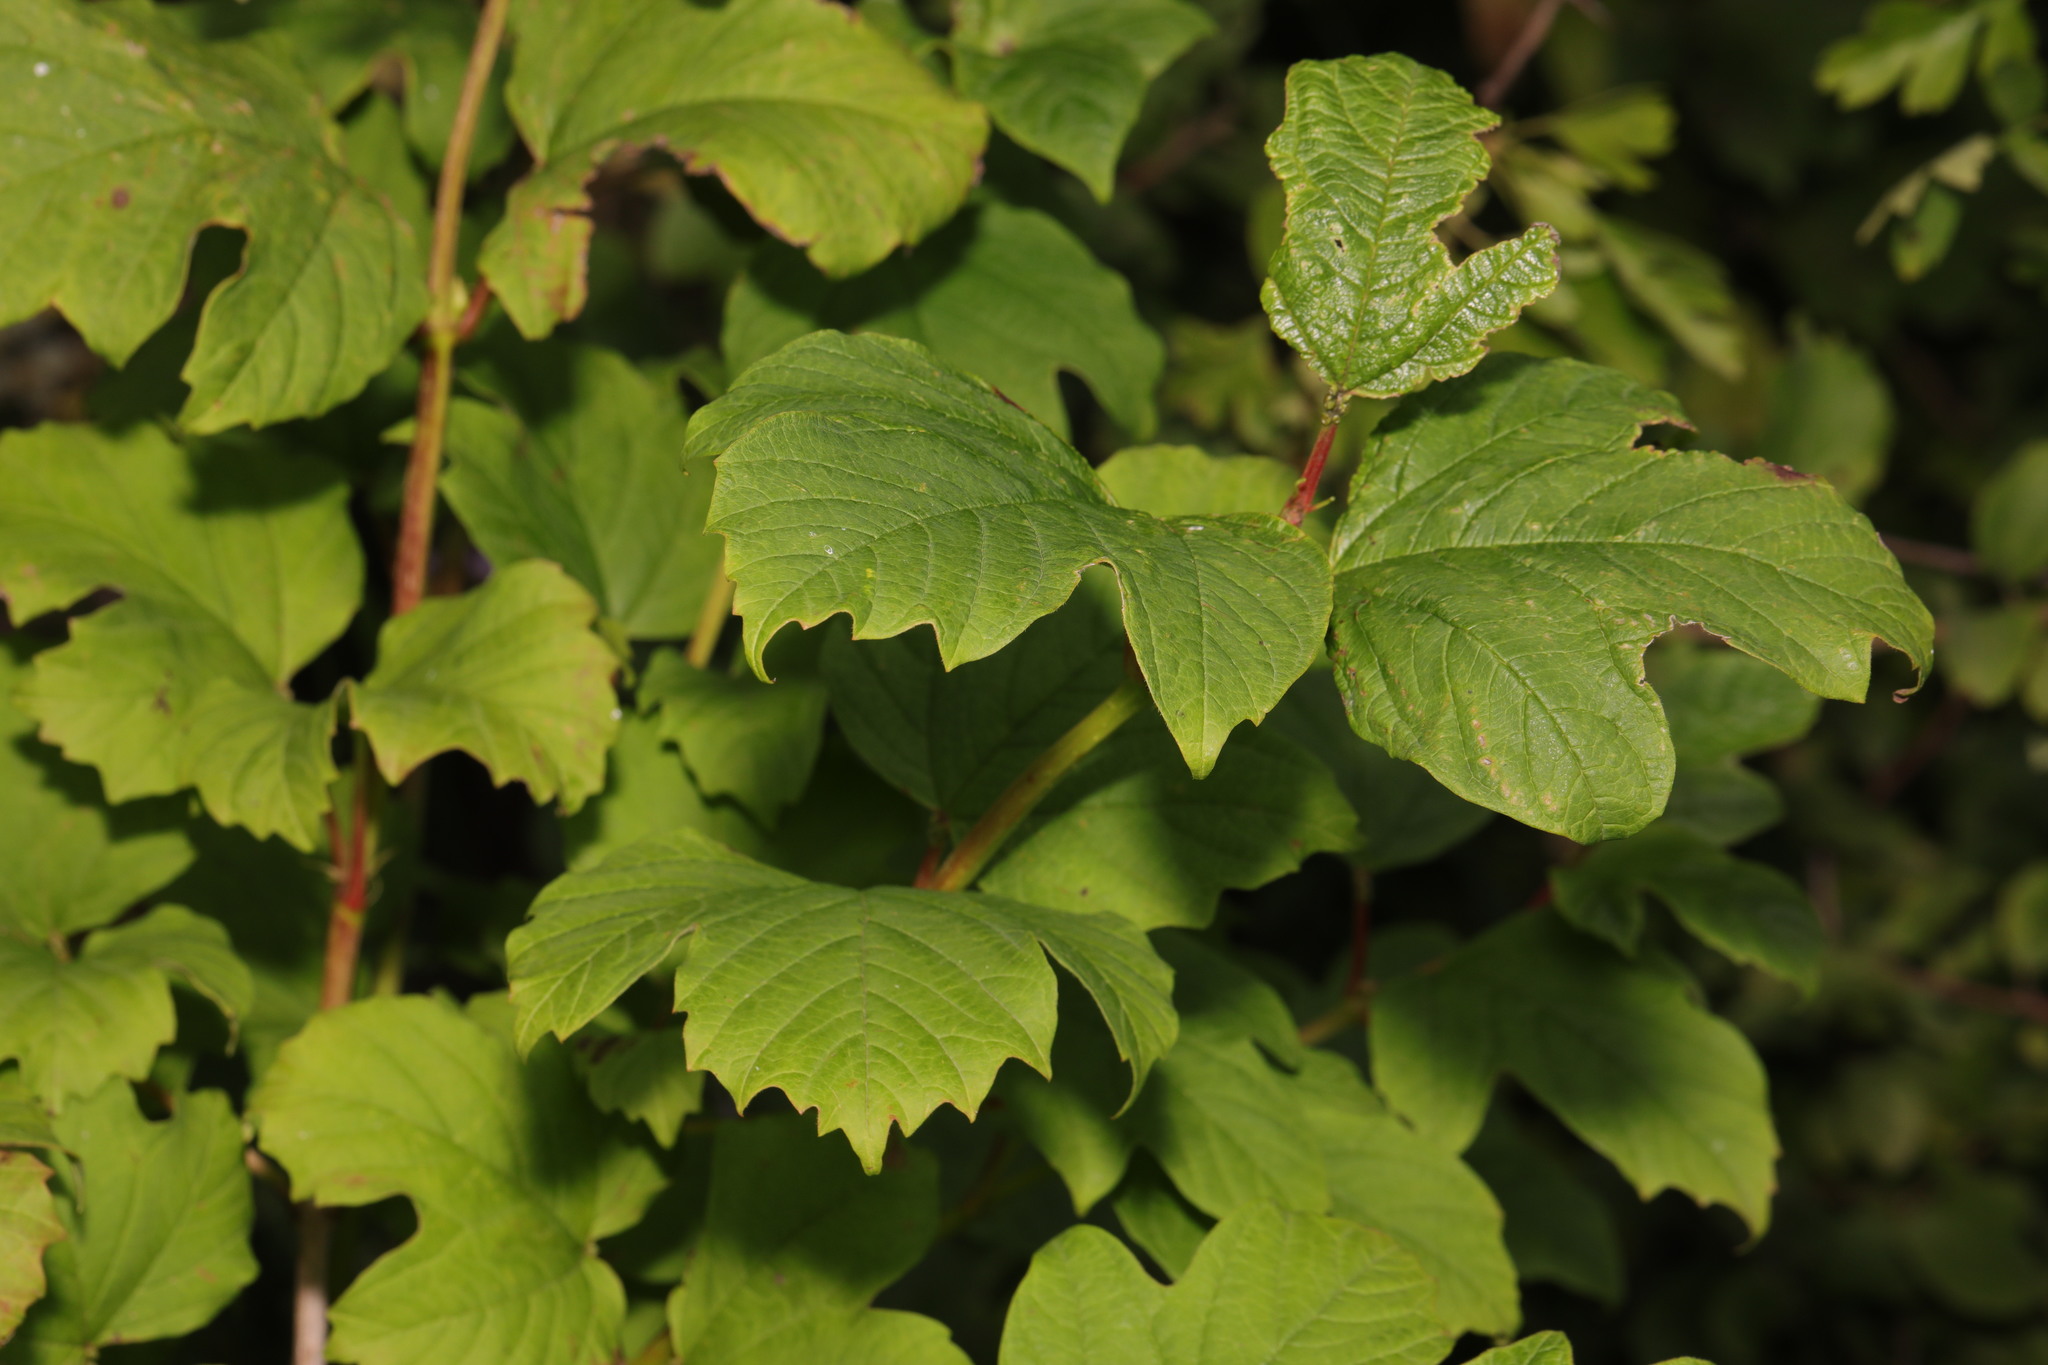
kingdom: Plantae
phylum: Tracheophyta
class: Magnoliopsida
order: Dipsacales
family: Viburnaceae
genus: Viburnum
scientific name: Viburnum opulus
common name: Guelder-rose
